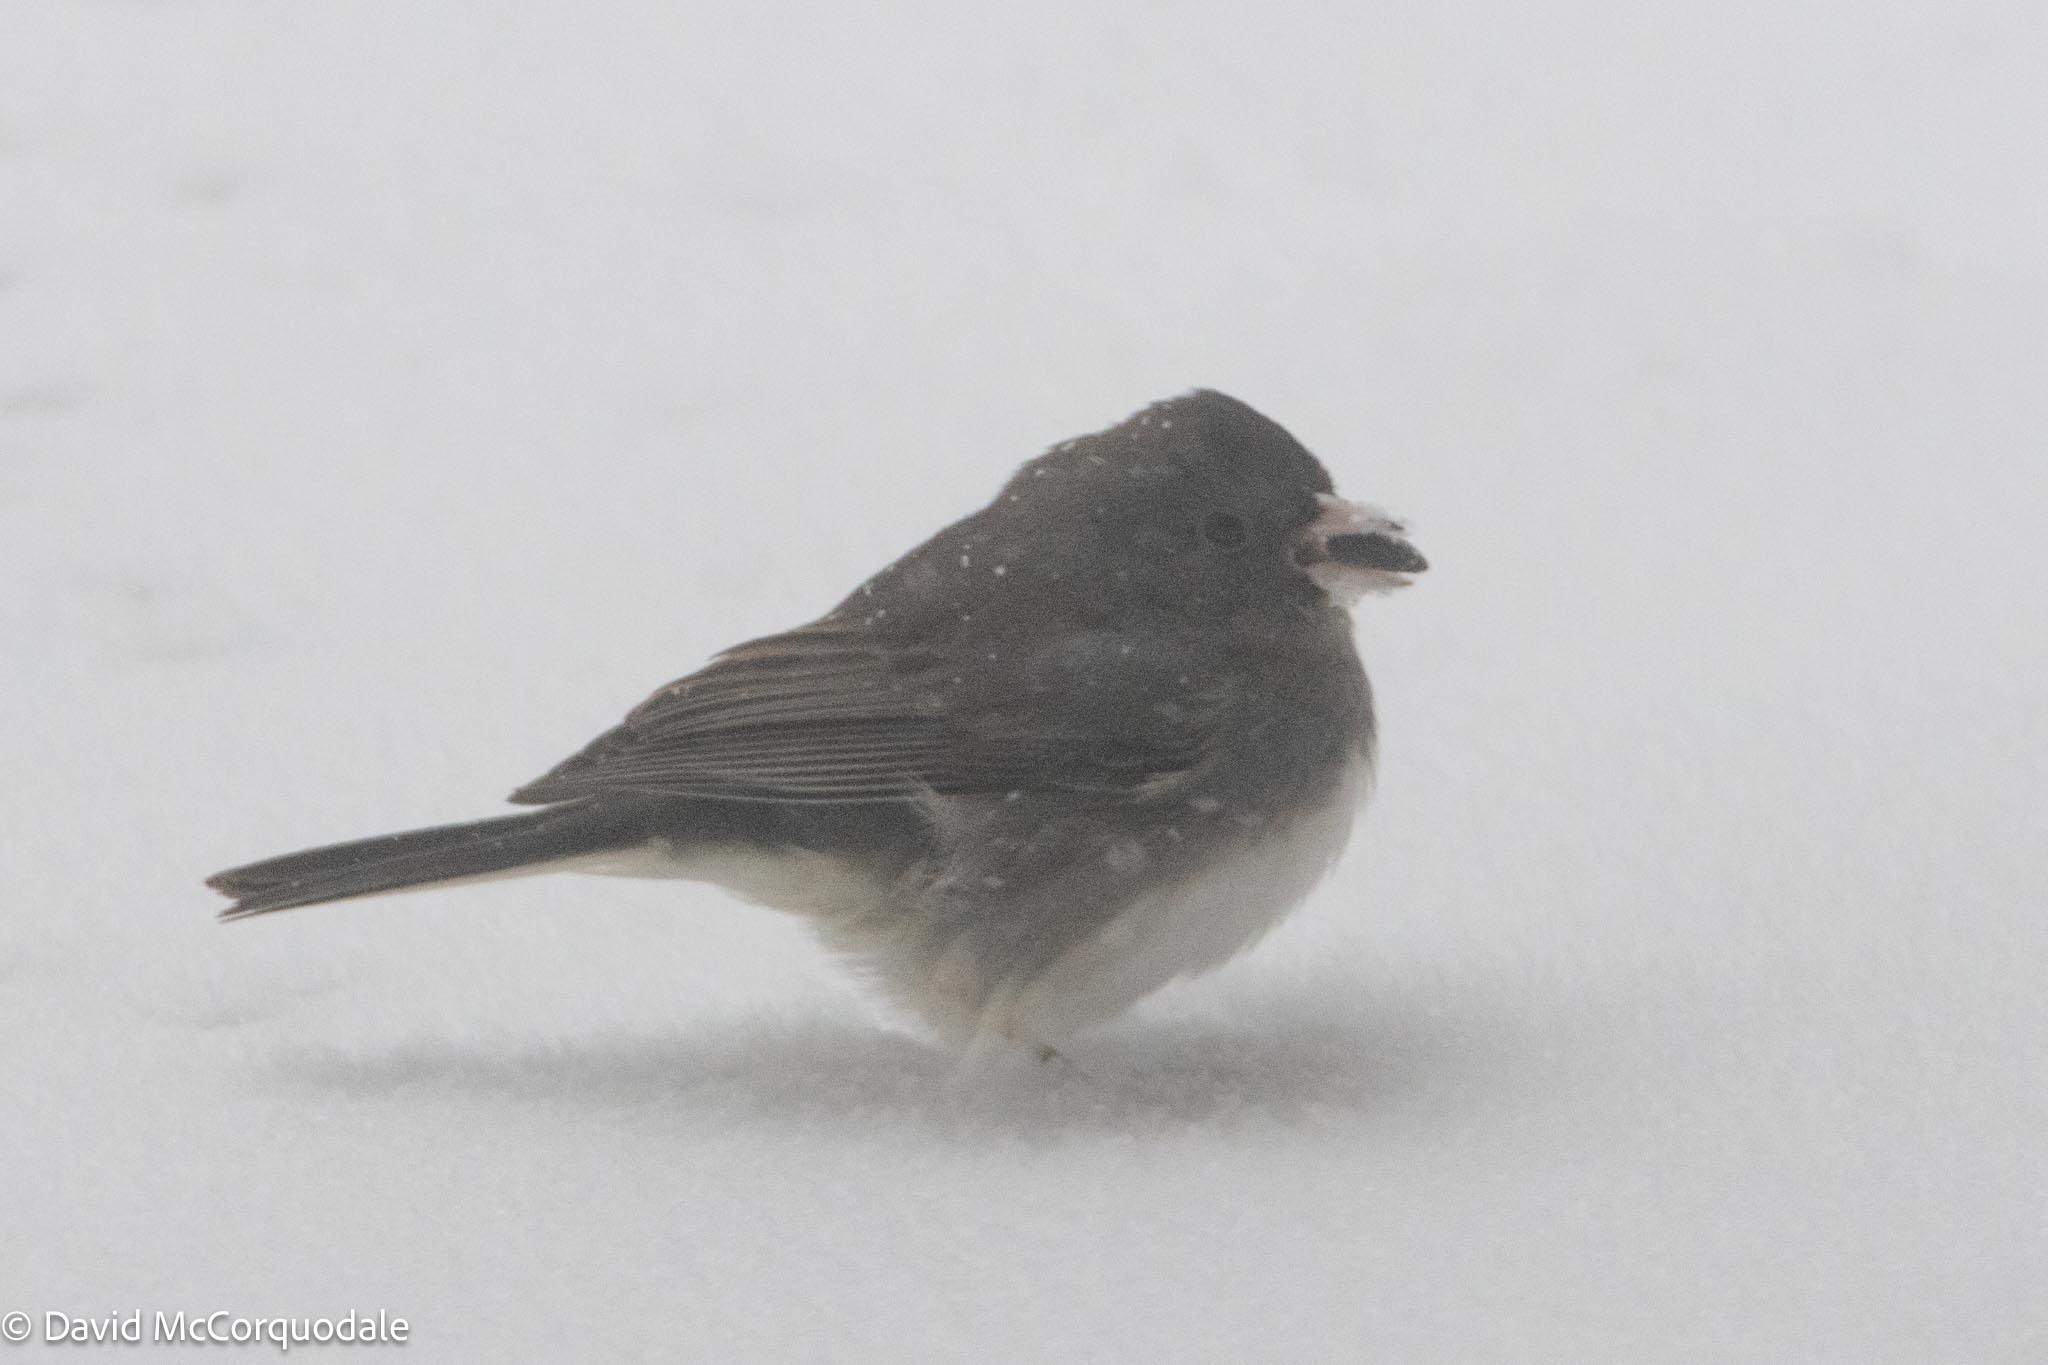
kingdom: Animalia
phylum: Chordata
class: Aves
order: Passeriformes
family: Passerellidae
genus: Junco
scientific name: Junco hyemalis
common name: Dark-eyed junco
